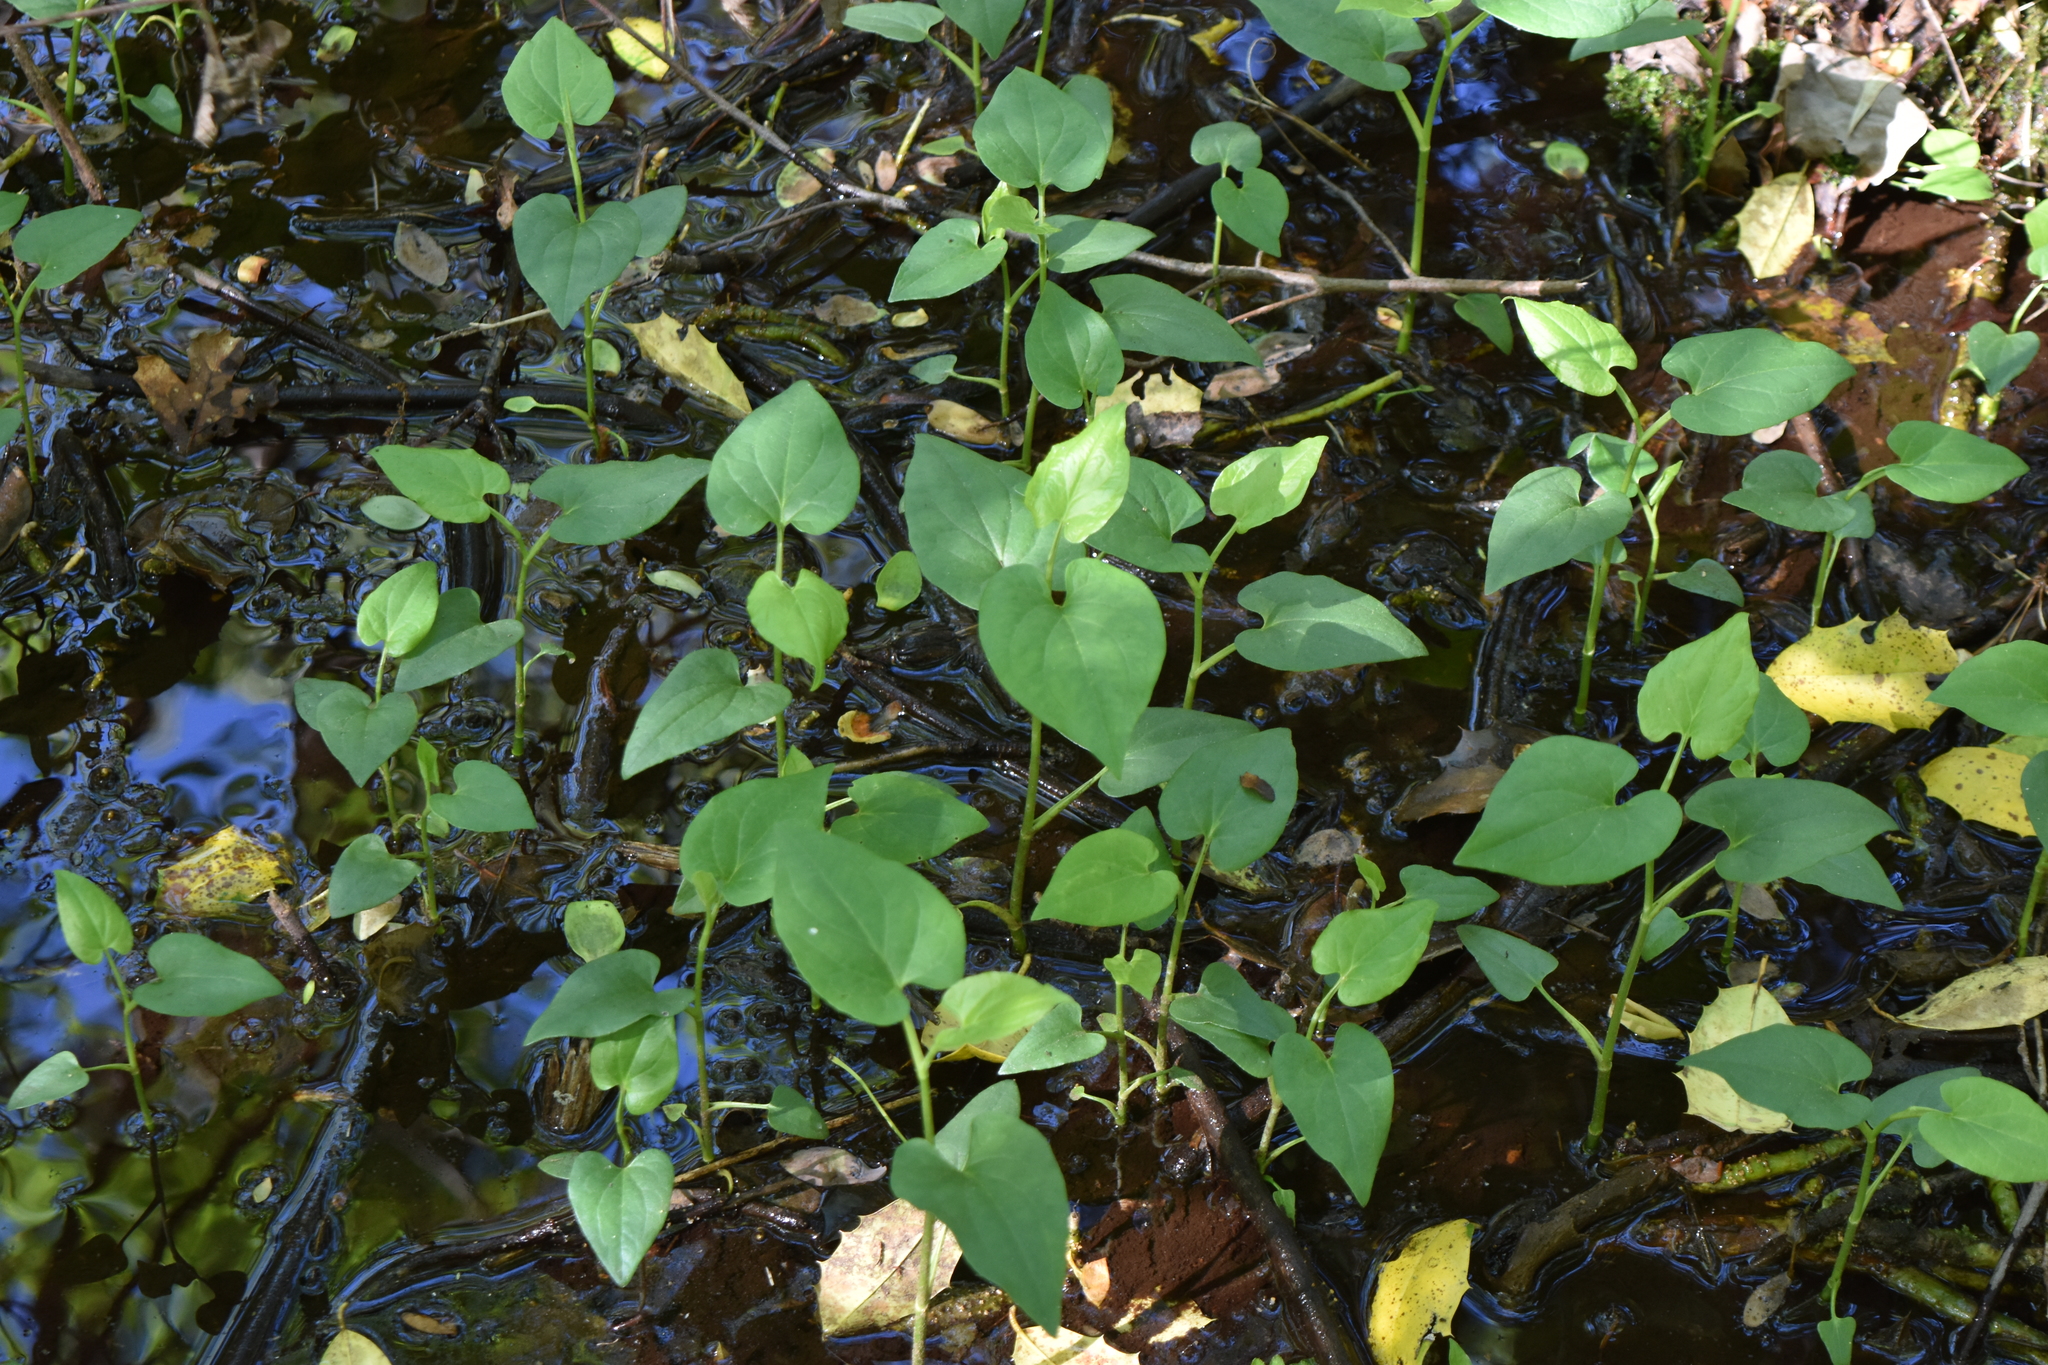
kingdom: Plantae
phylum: Tracheophyta
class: Magnoliopsida
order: Piperales
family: Saururaceae
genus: Saururus
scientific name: Saururus cernuus
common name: Lizard's-tail
